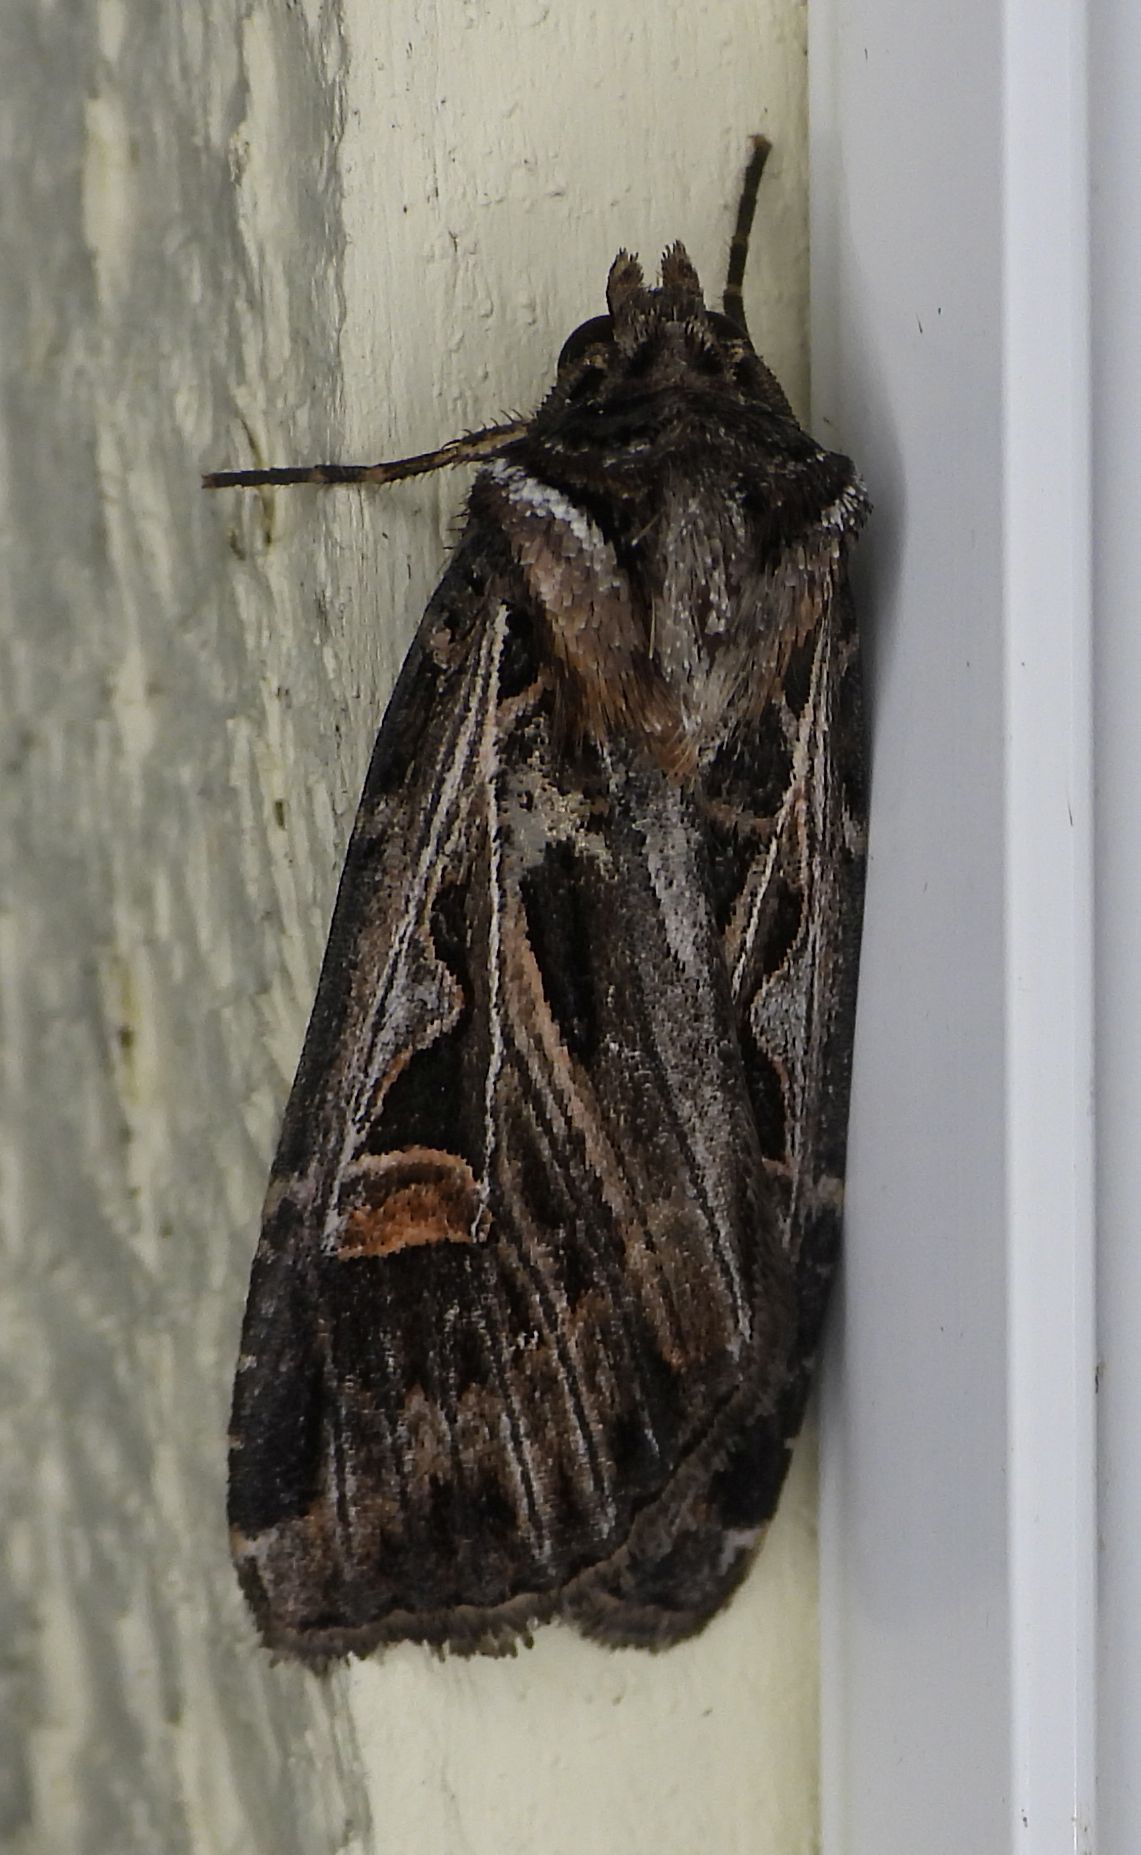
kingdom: Animalia
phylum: Arthropoda
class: Insecta
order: Lepidoptera
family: Noctuidae
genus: Feltia
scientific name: Feltia jaculifera
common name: Dingy cutworm moth
